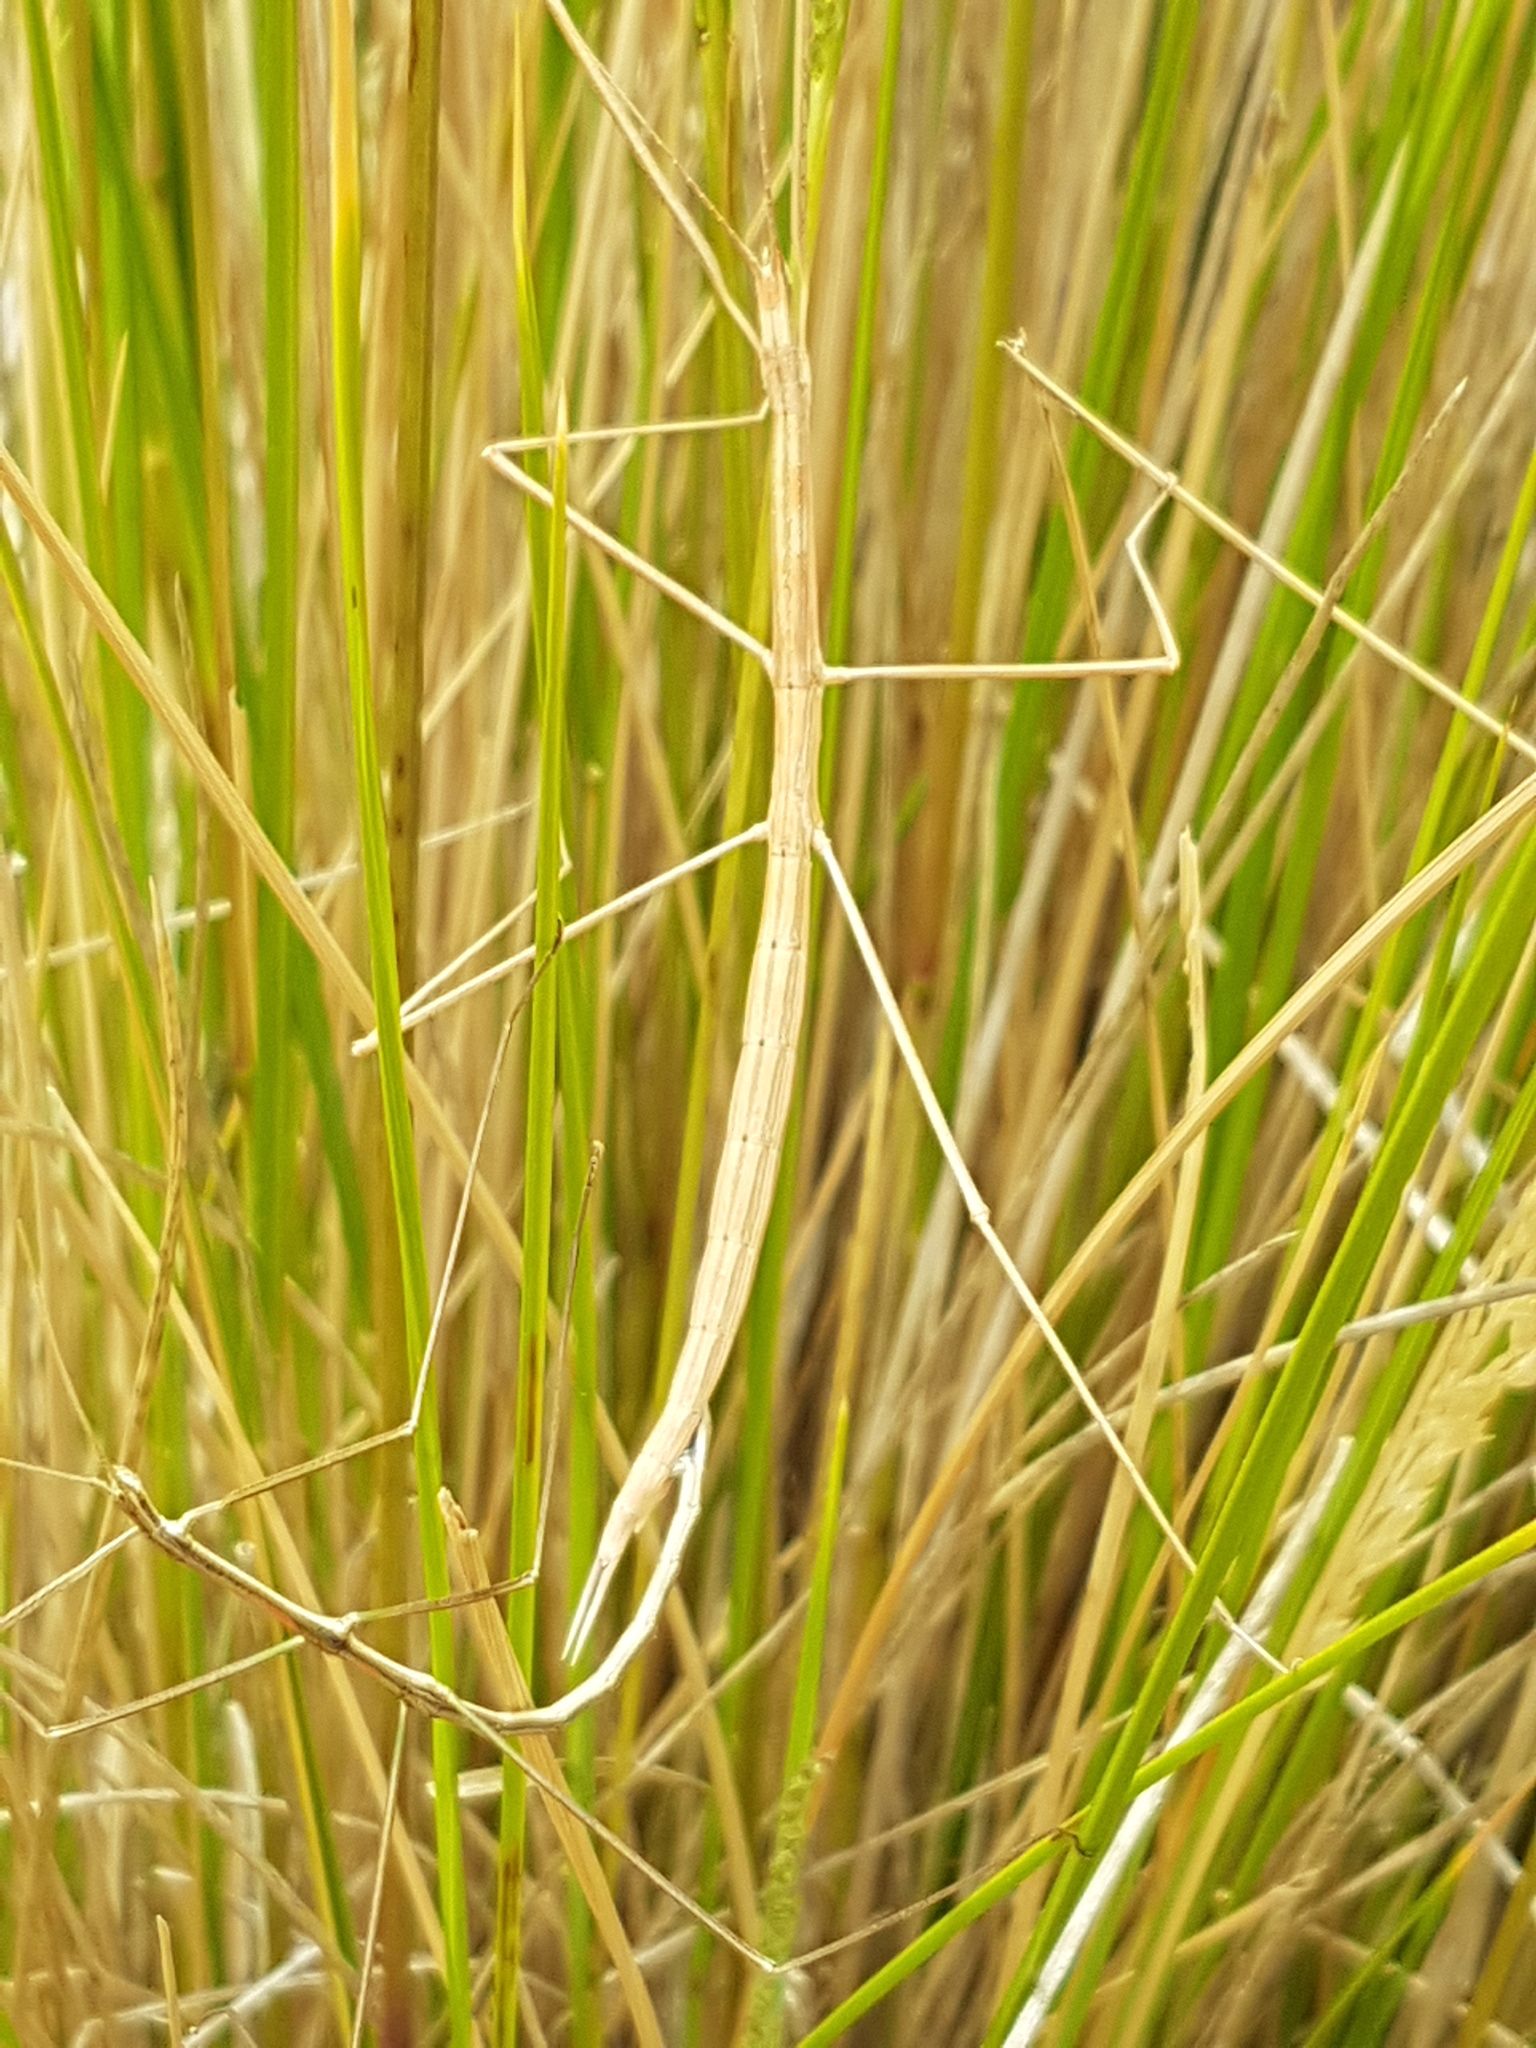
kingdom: Animalia
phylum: Arthropoda
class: Insecta
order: Phasmida
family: Lonchodidae
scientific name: Lonchodidae
